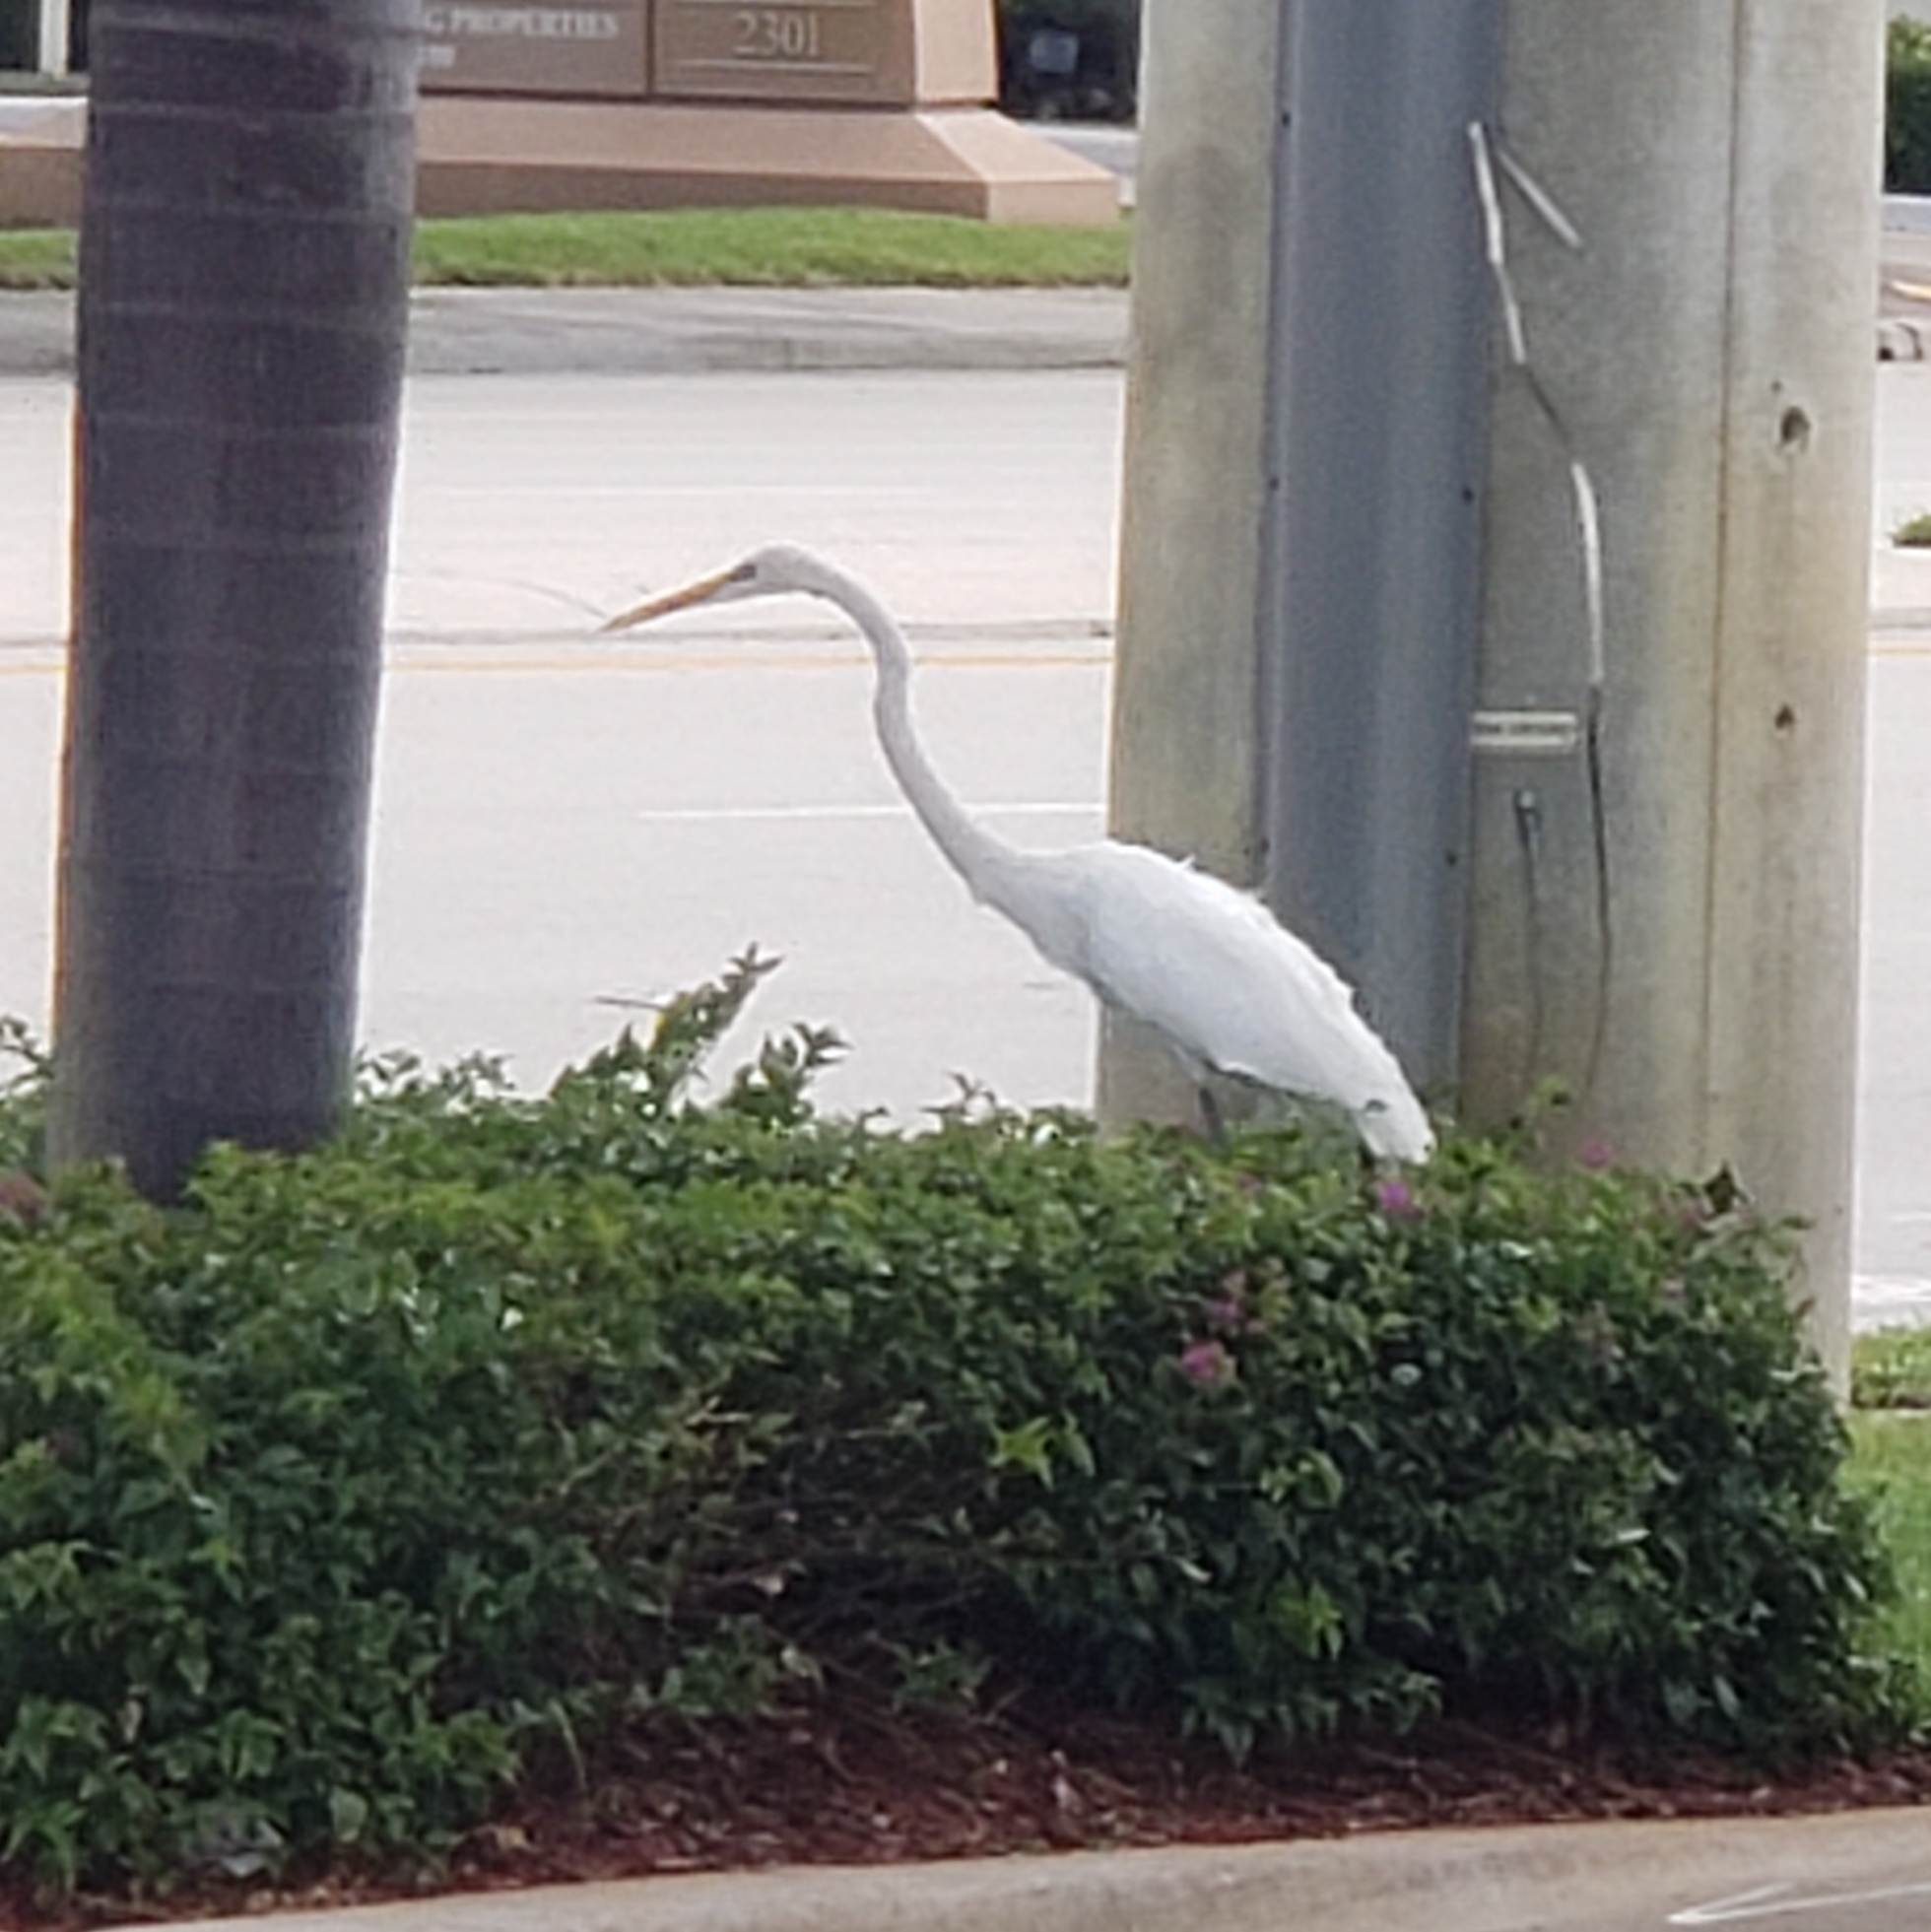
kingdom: Animalia
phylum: Chordata
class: Aves
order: Pelecaniformes
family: Ardeidae
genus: Ardea
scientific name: Ardea alba
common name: Great egret
